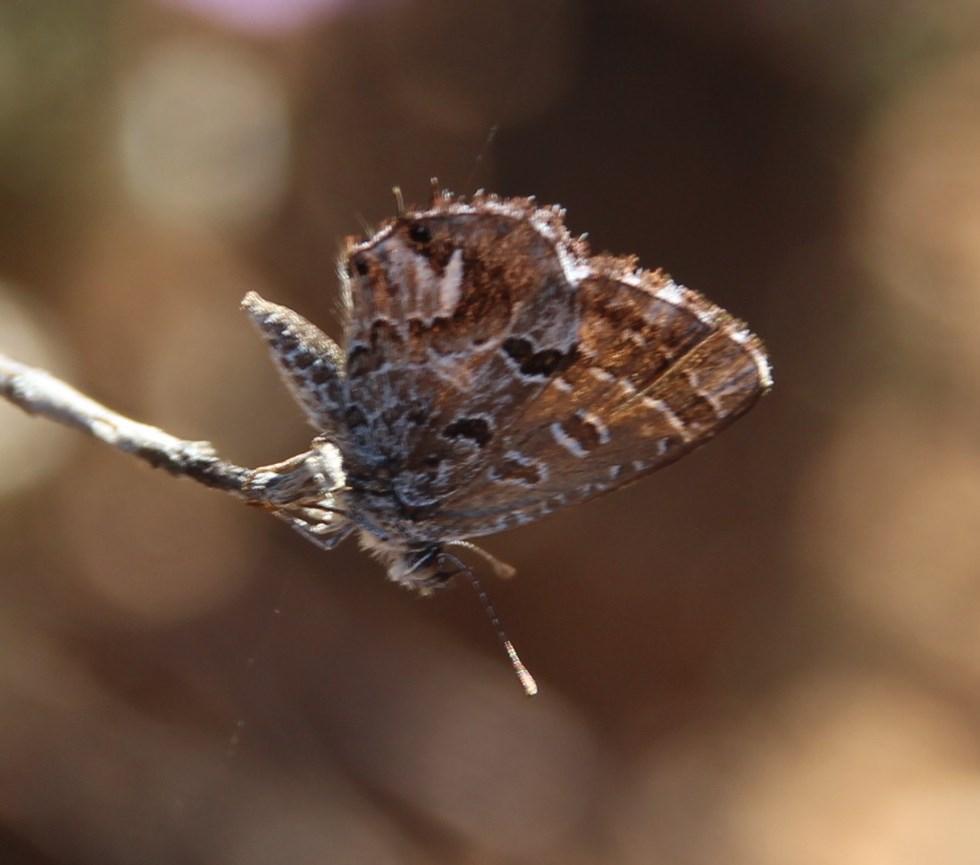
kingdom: Animalia
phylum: Arthropoda
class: Insecta
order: Lepidoptera
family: Lycaenidae
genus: Cacyreus
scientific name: Cacyreus dicksoni
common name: Dickson's geranium bronze
